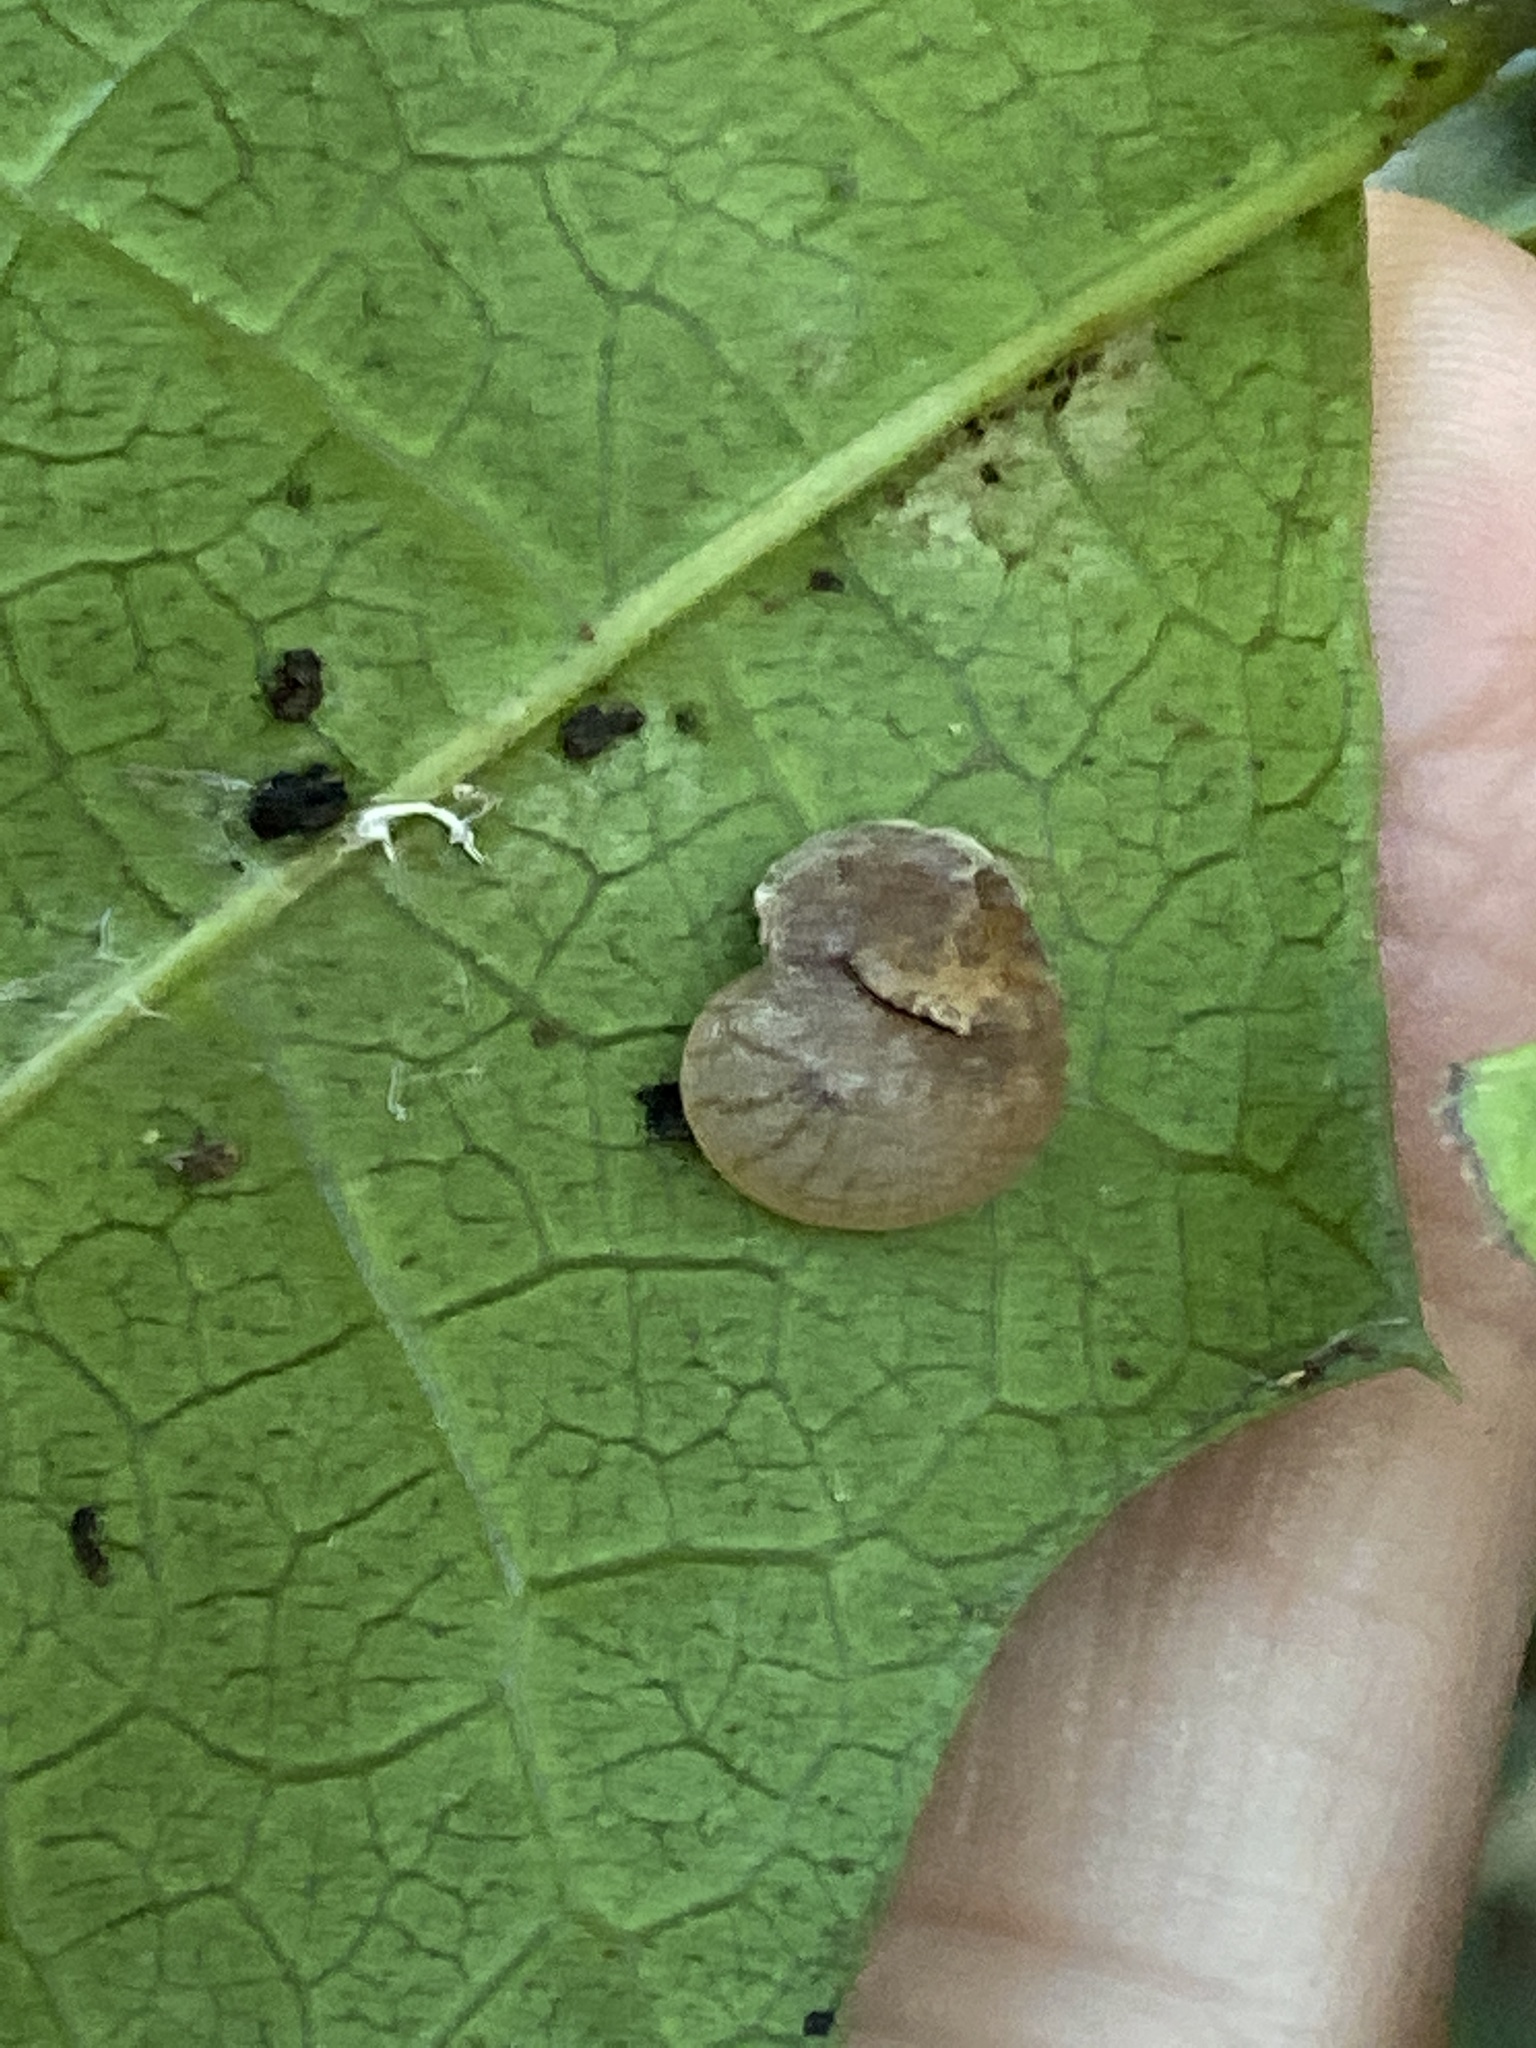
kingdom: Animalia
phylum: Mollusca
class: Gastropoda
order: Stylommatophora
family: Helicarionidae
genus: Ubiquitarion
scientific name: Ubiquitarion iridis
